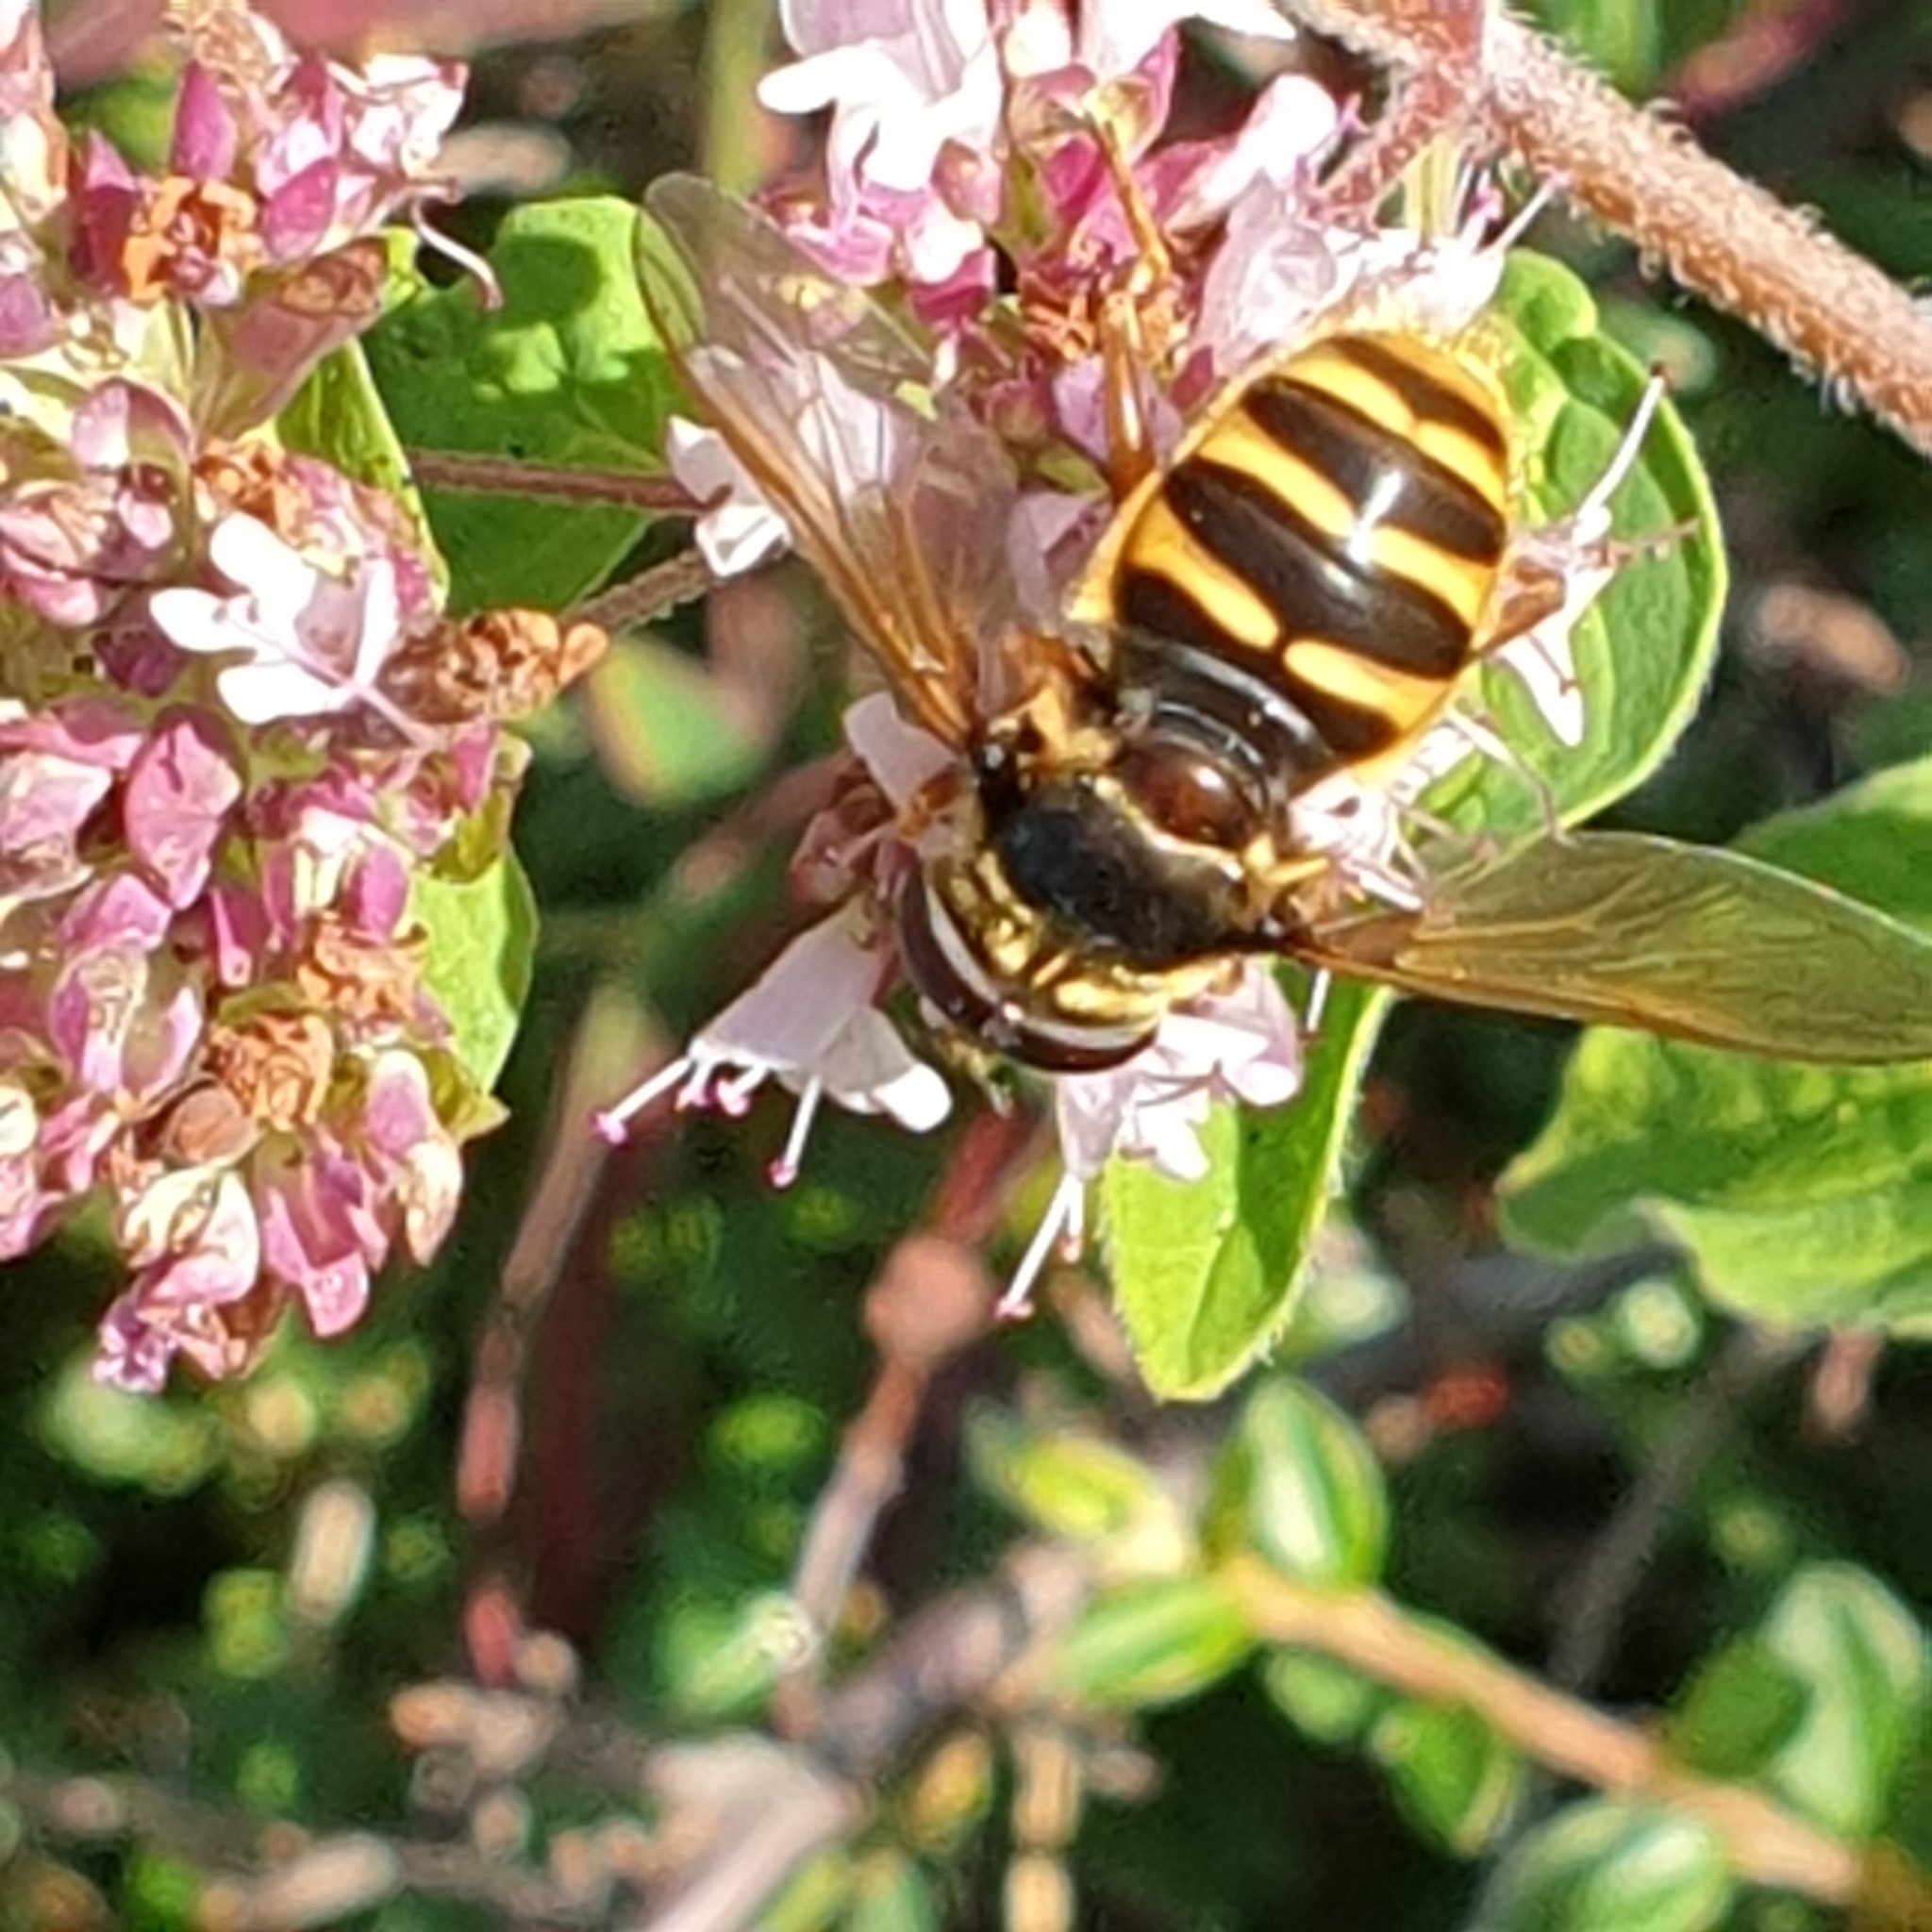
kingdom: Animalia
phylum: Arthropoda
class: Insecta
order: Diptera
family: Syrphidae
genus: Sericomyia
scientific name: Sericomyia silentis
